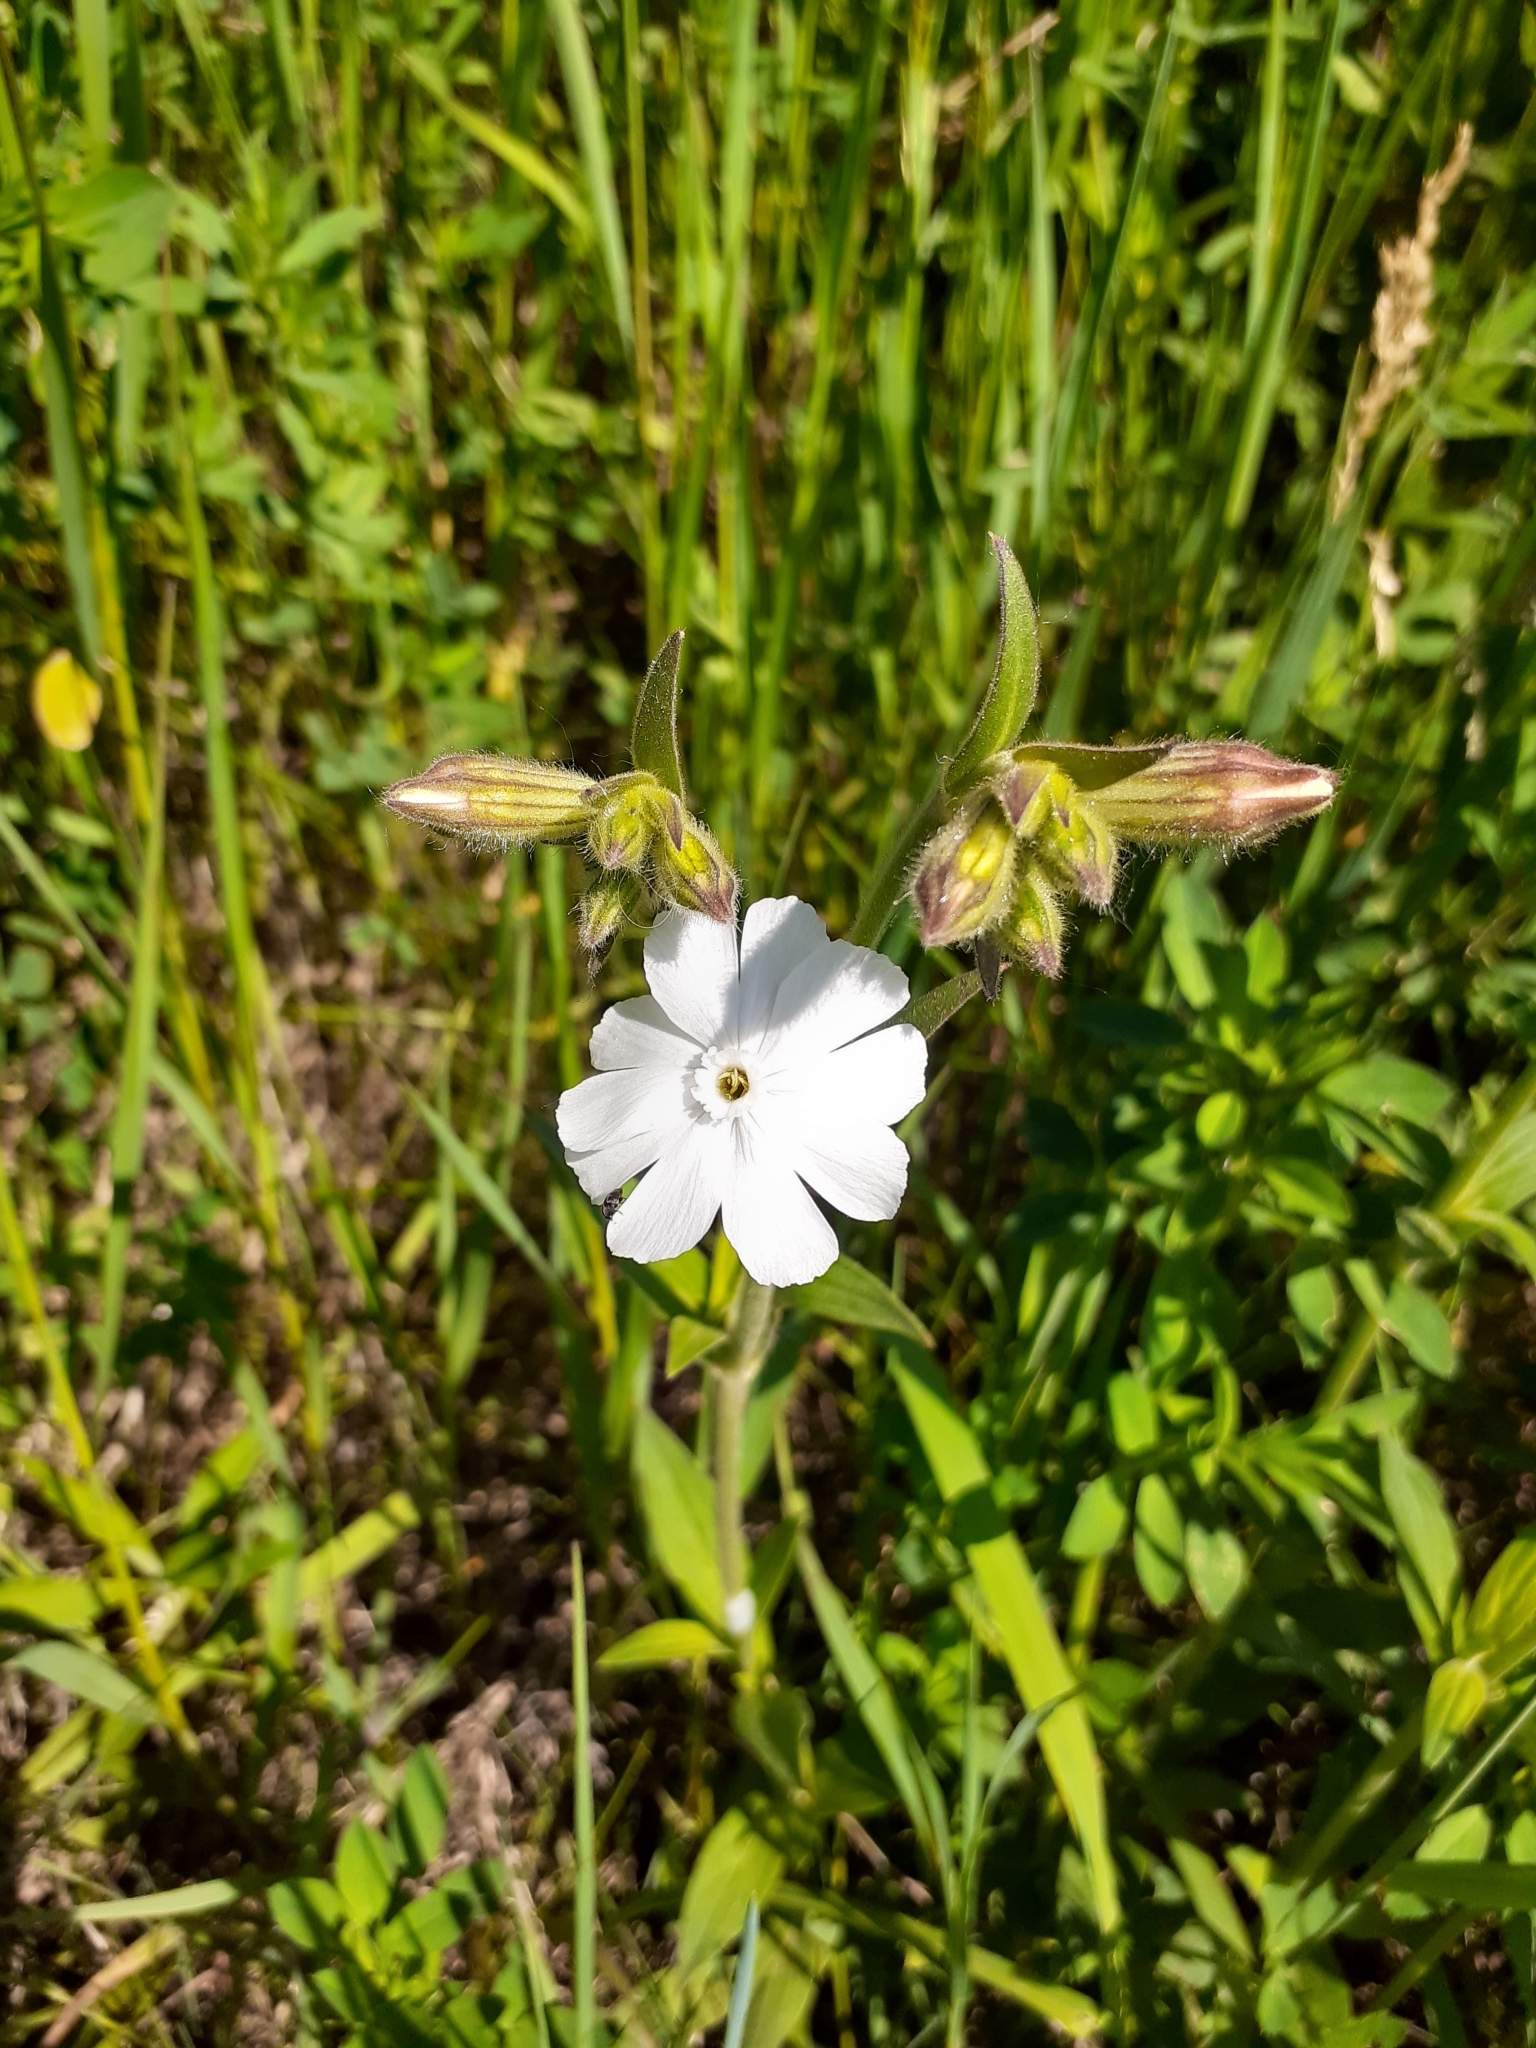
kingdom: Plantae
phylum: Tracheophyta
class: Magnoliopsida
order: Caryophyllales
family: Caryophyllaceae
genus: Silene
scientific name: Silene latifolia
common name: White campion
